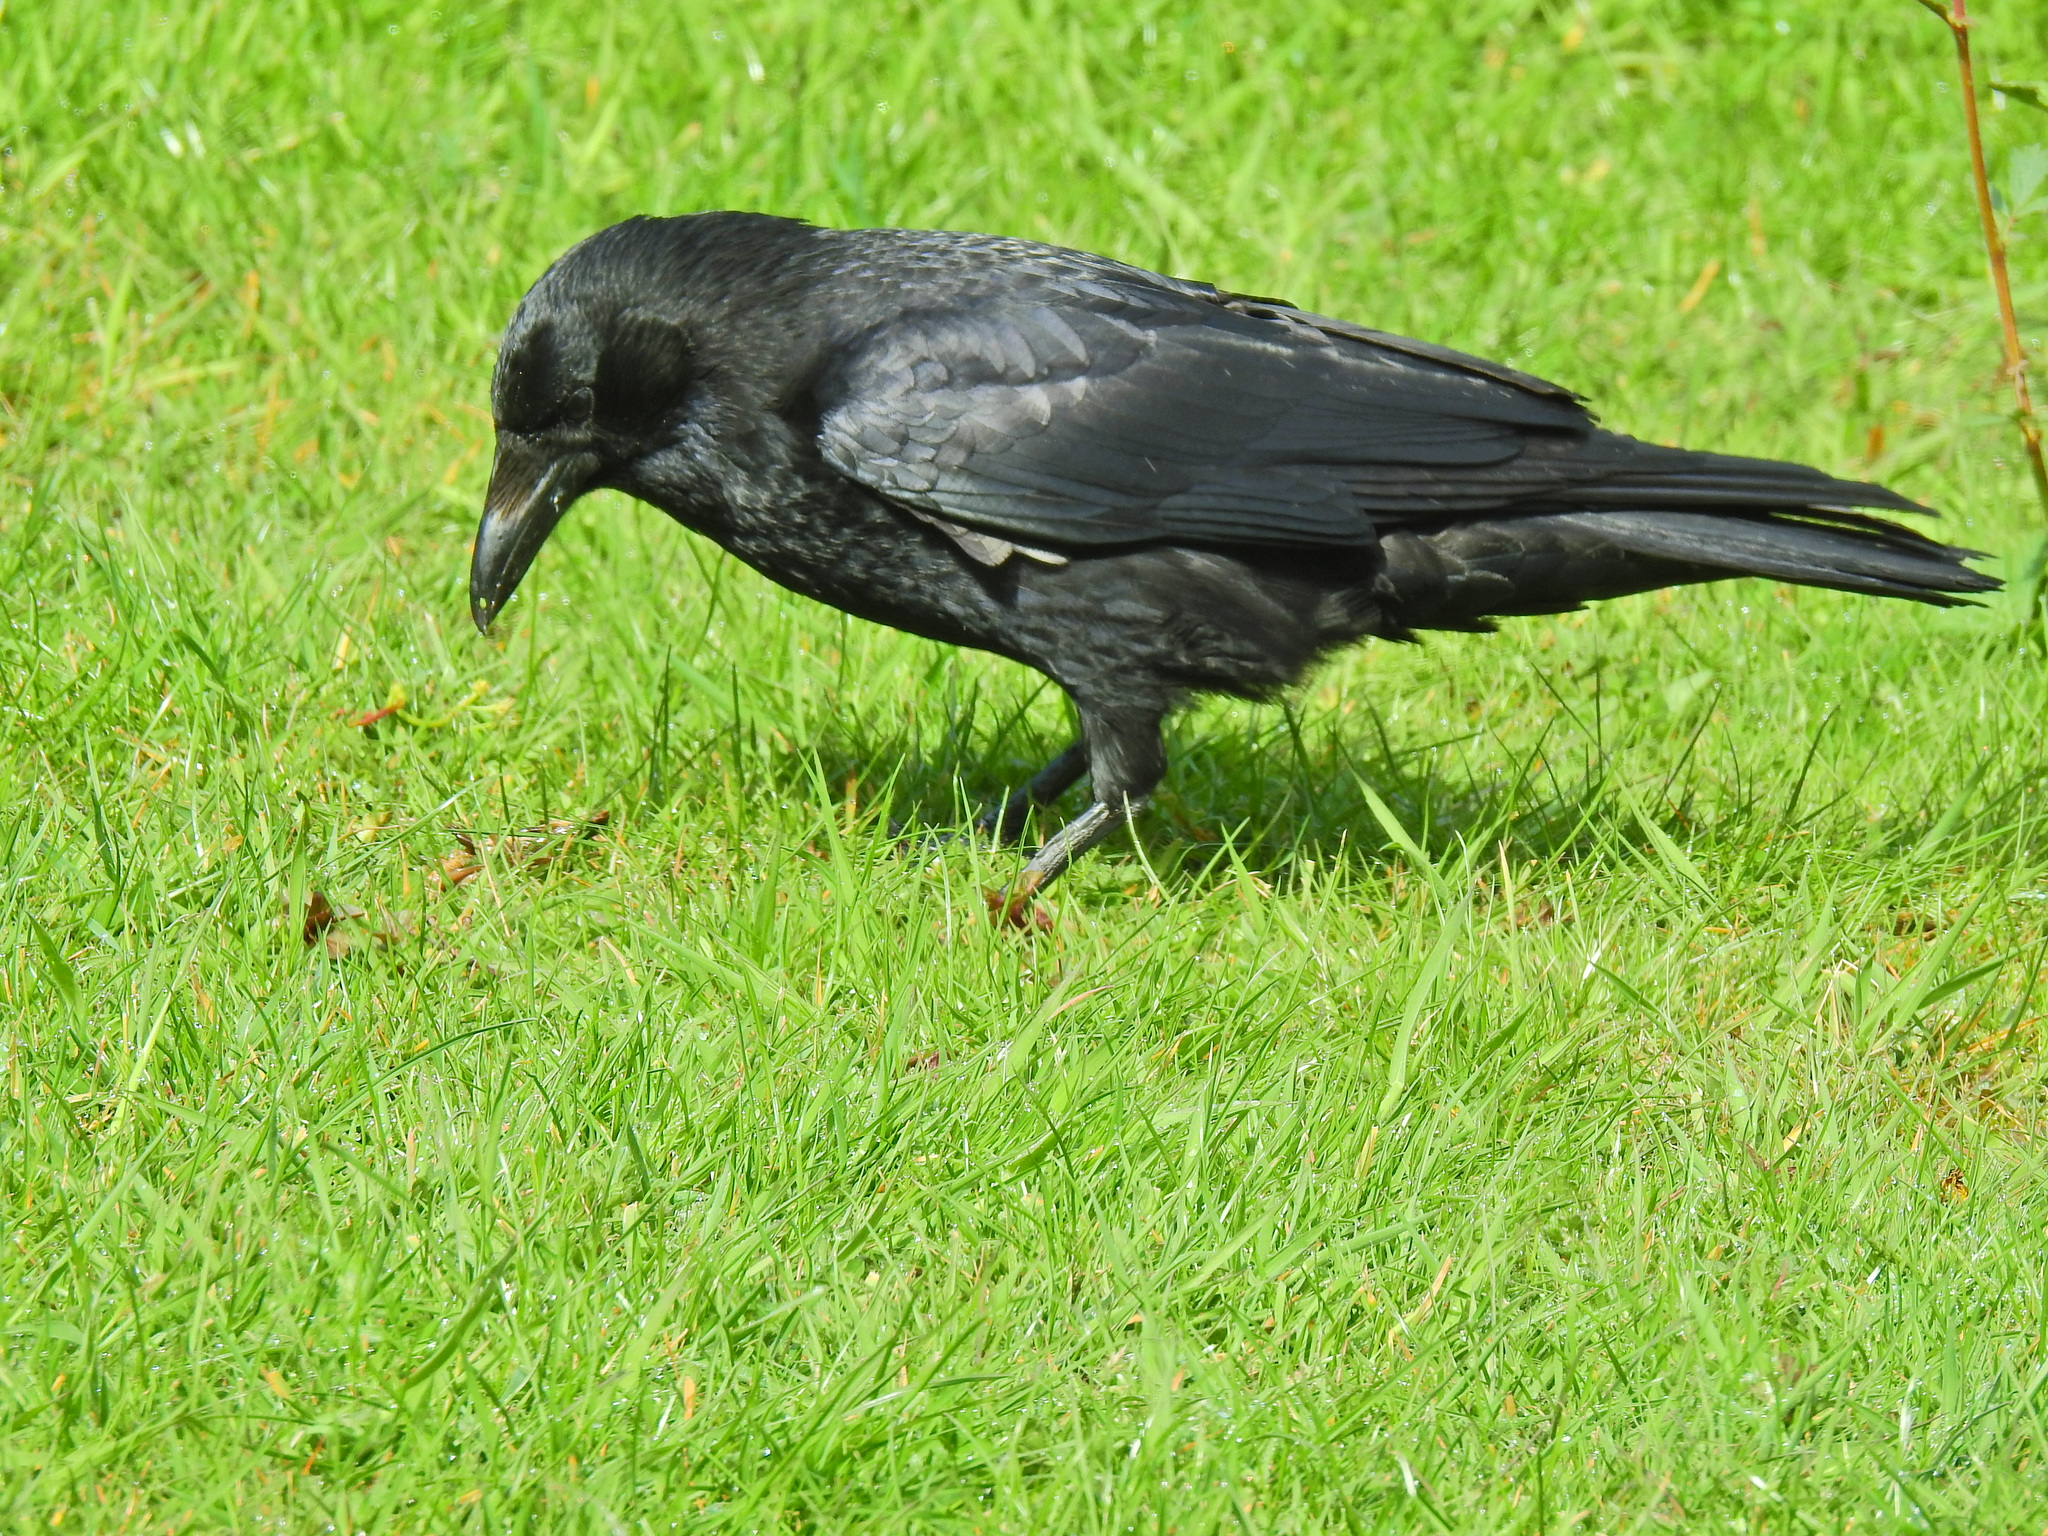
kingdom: Animalia
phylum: Chordata
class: Aves
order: Passeriformes
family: Corvidae
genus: Corvus
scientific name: Corvus corone
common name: Carrion crow
